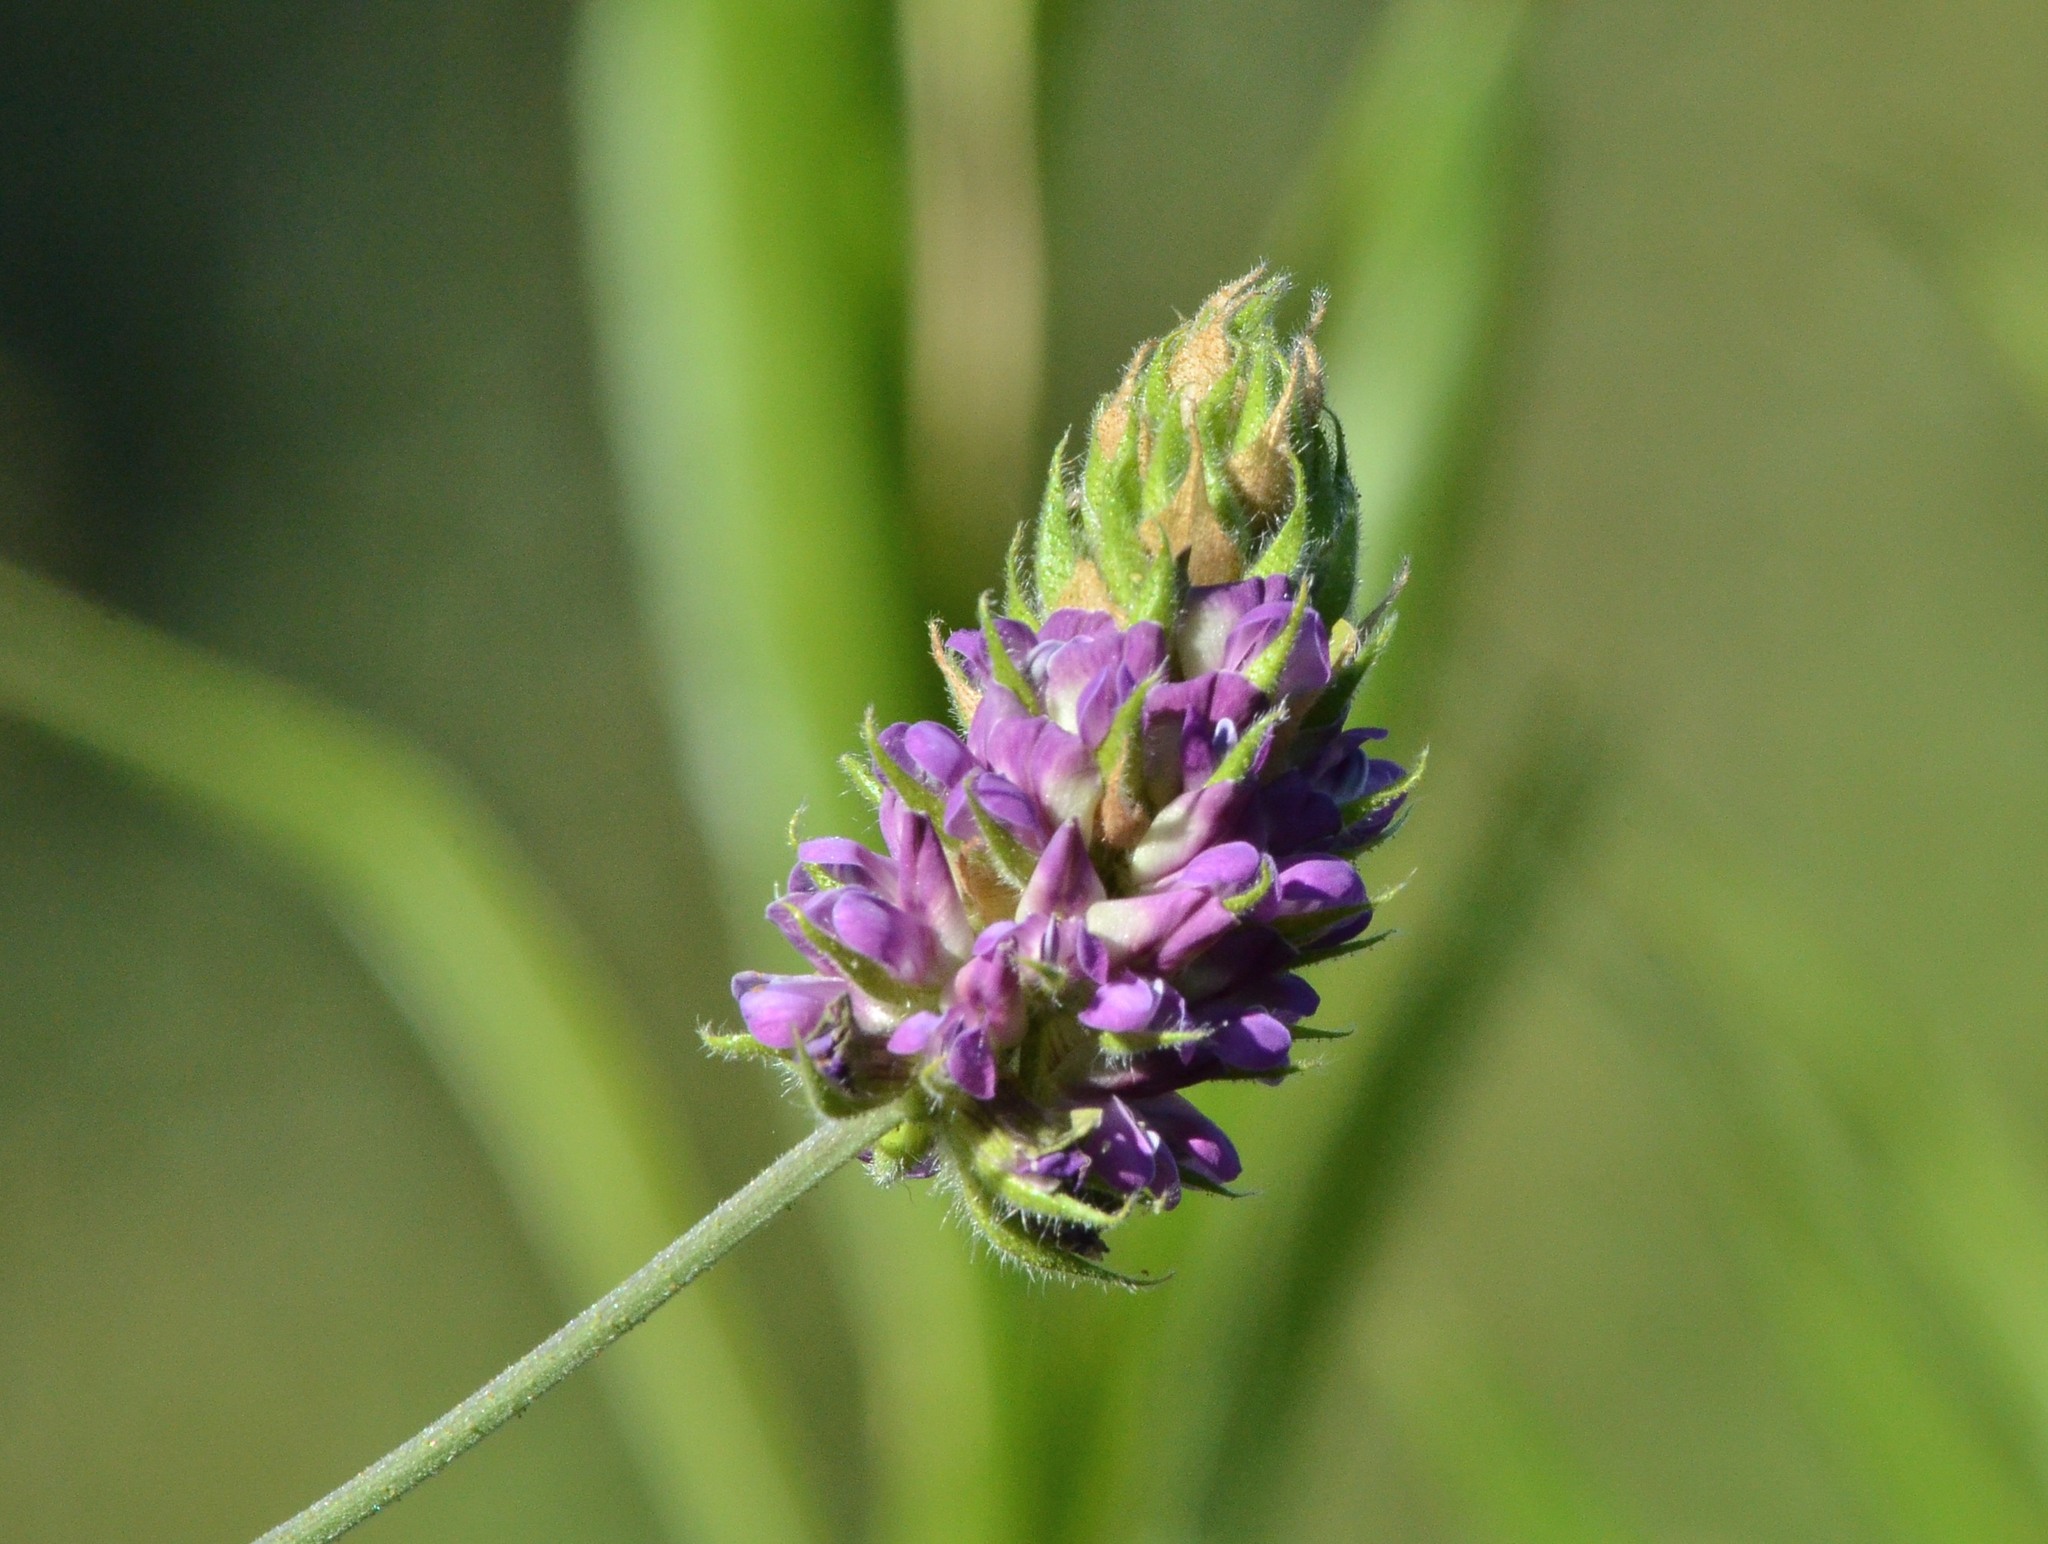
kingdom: Plantae
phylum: Tracheophyta
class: Magnoliopsida
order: Fabales
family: Fabaceae
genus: Hoita
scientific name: Hoita macrostachya
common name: Leatherroot
